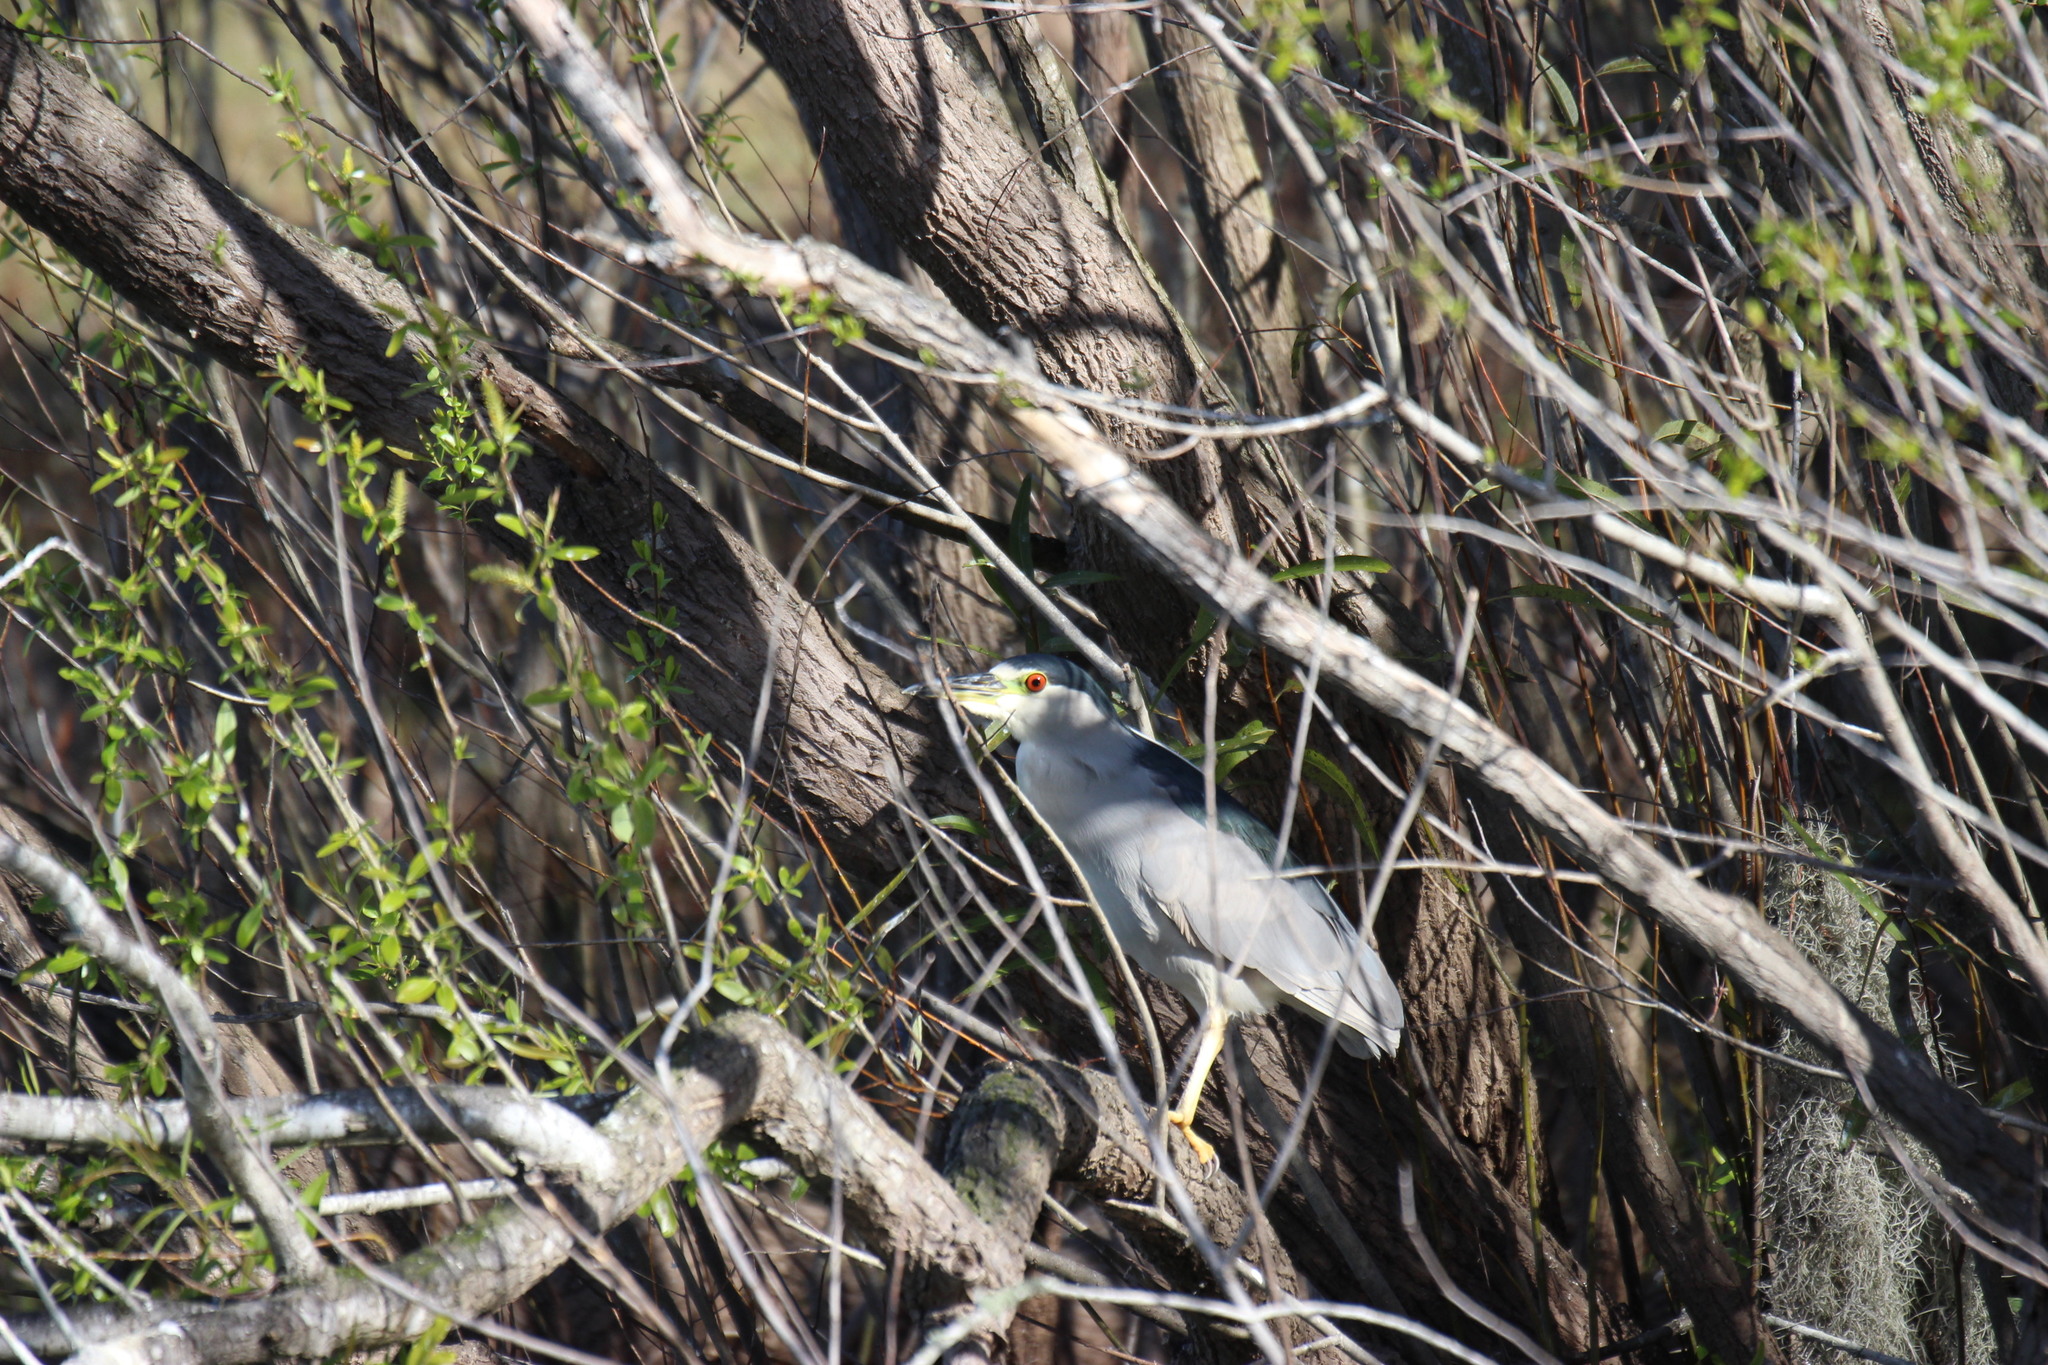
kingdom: Animalia
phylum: Chordata
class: Aves
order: Pelecaniformes
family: Ardeidae
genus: Nycticorax
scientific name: Nycticorax nycticorax
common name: Black-crowned night heron
